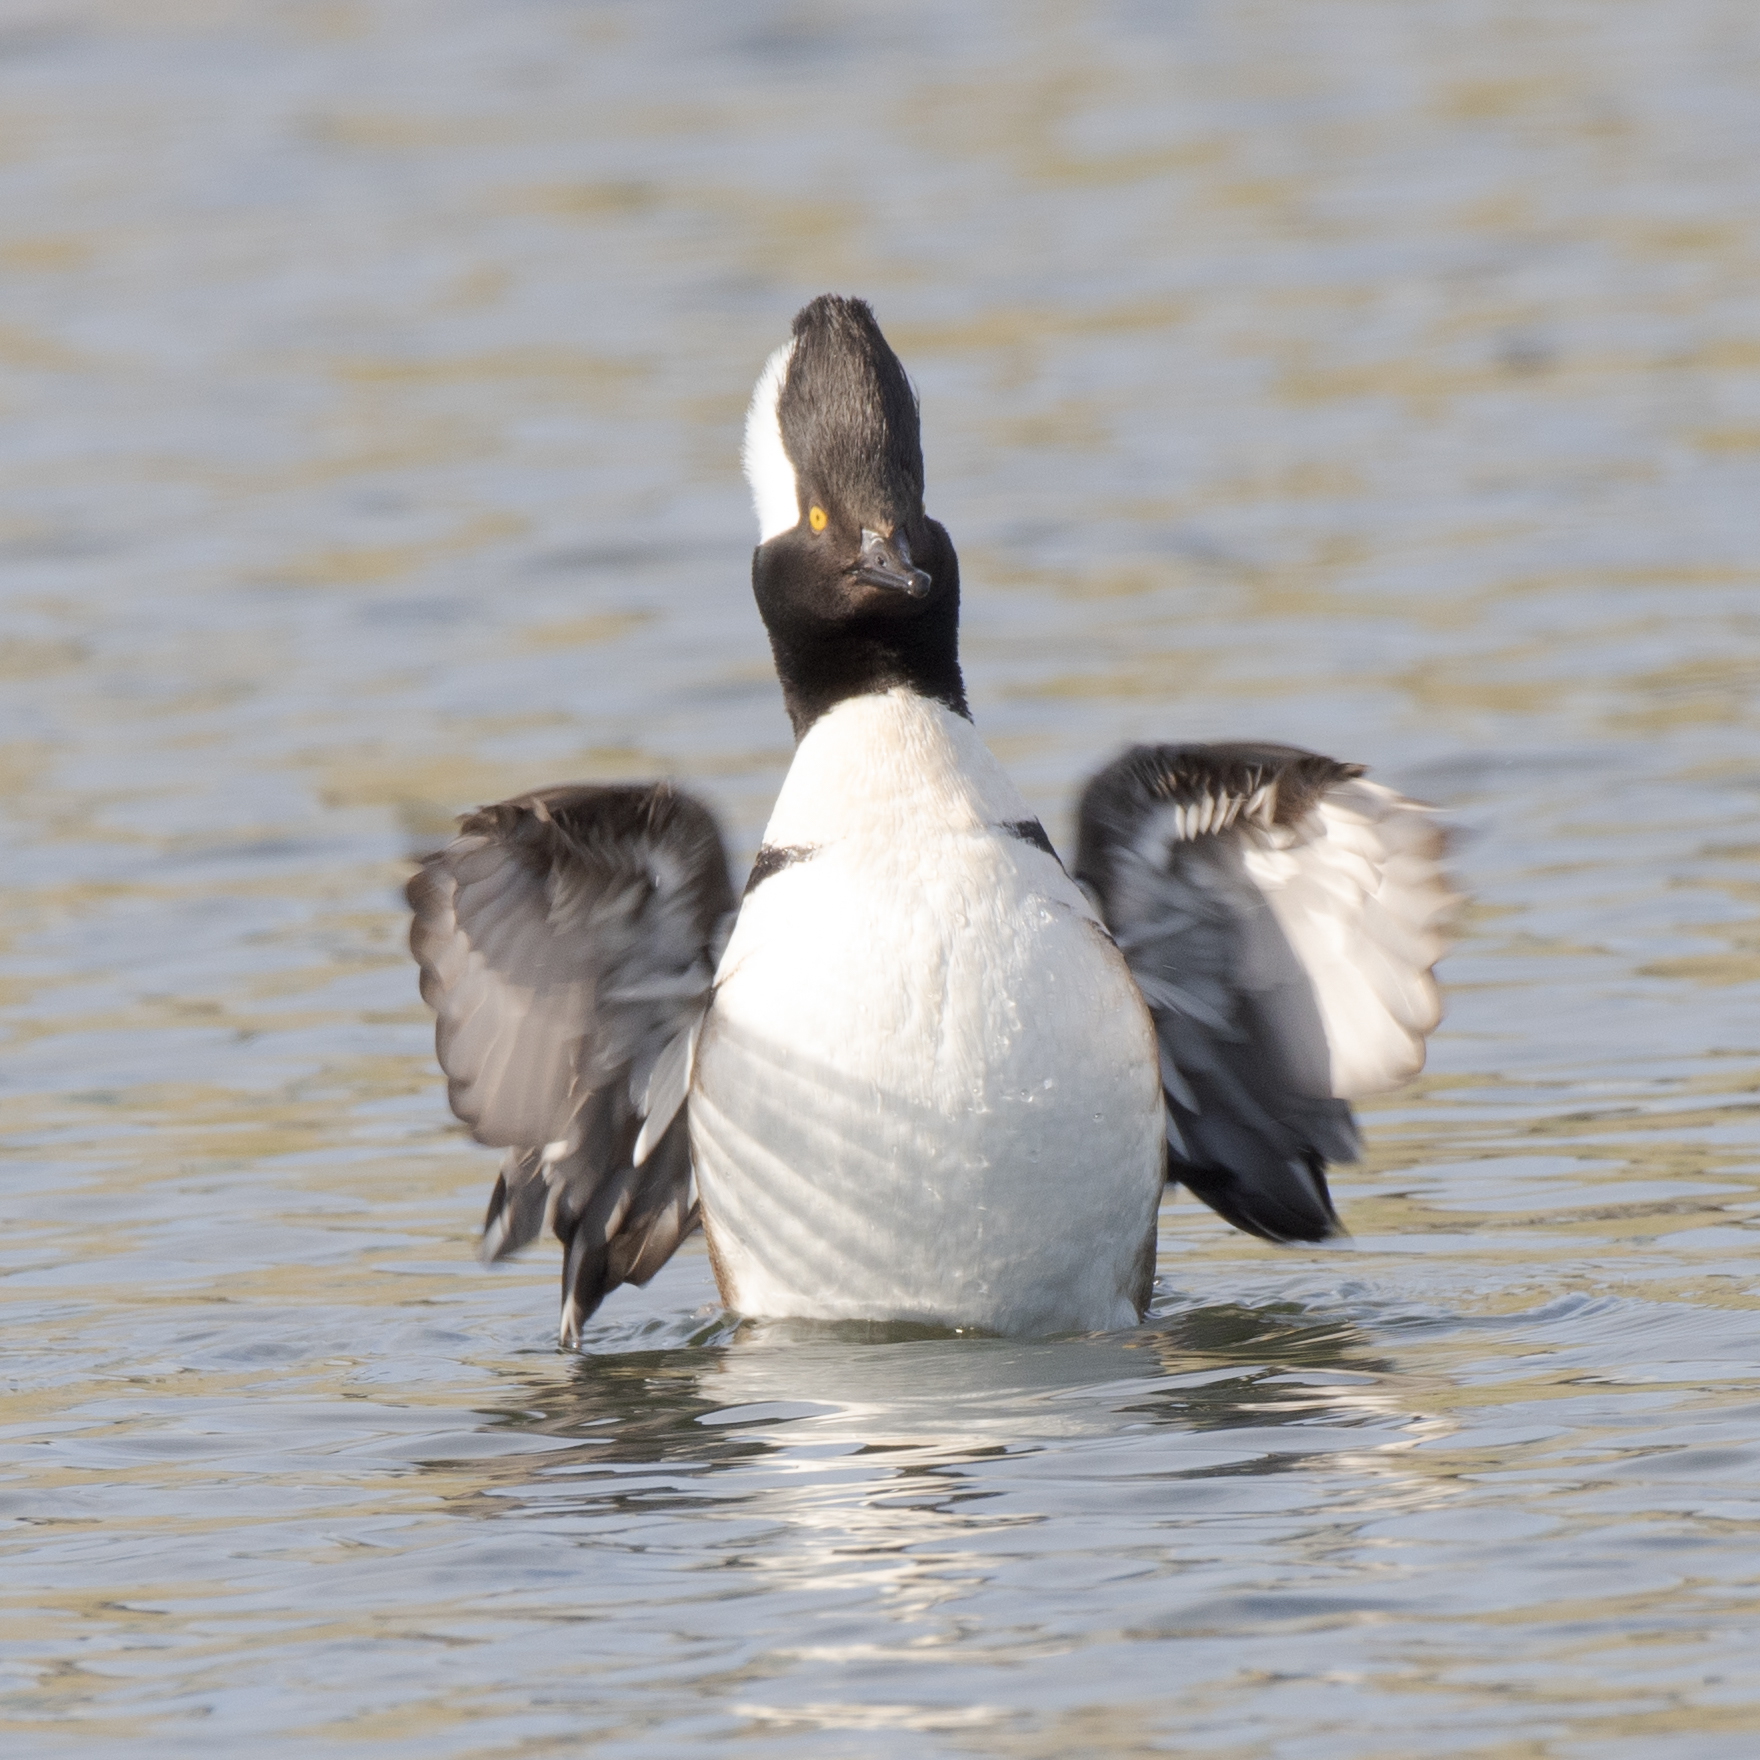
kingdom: Animalia
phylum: Chordata
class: Aves
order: Anseriformes
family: Anatidae
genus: Lophodytes
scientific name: Lophodytes cucullatus
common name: Hooded merganser
